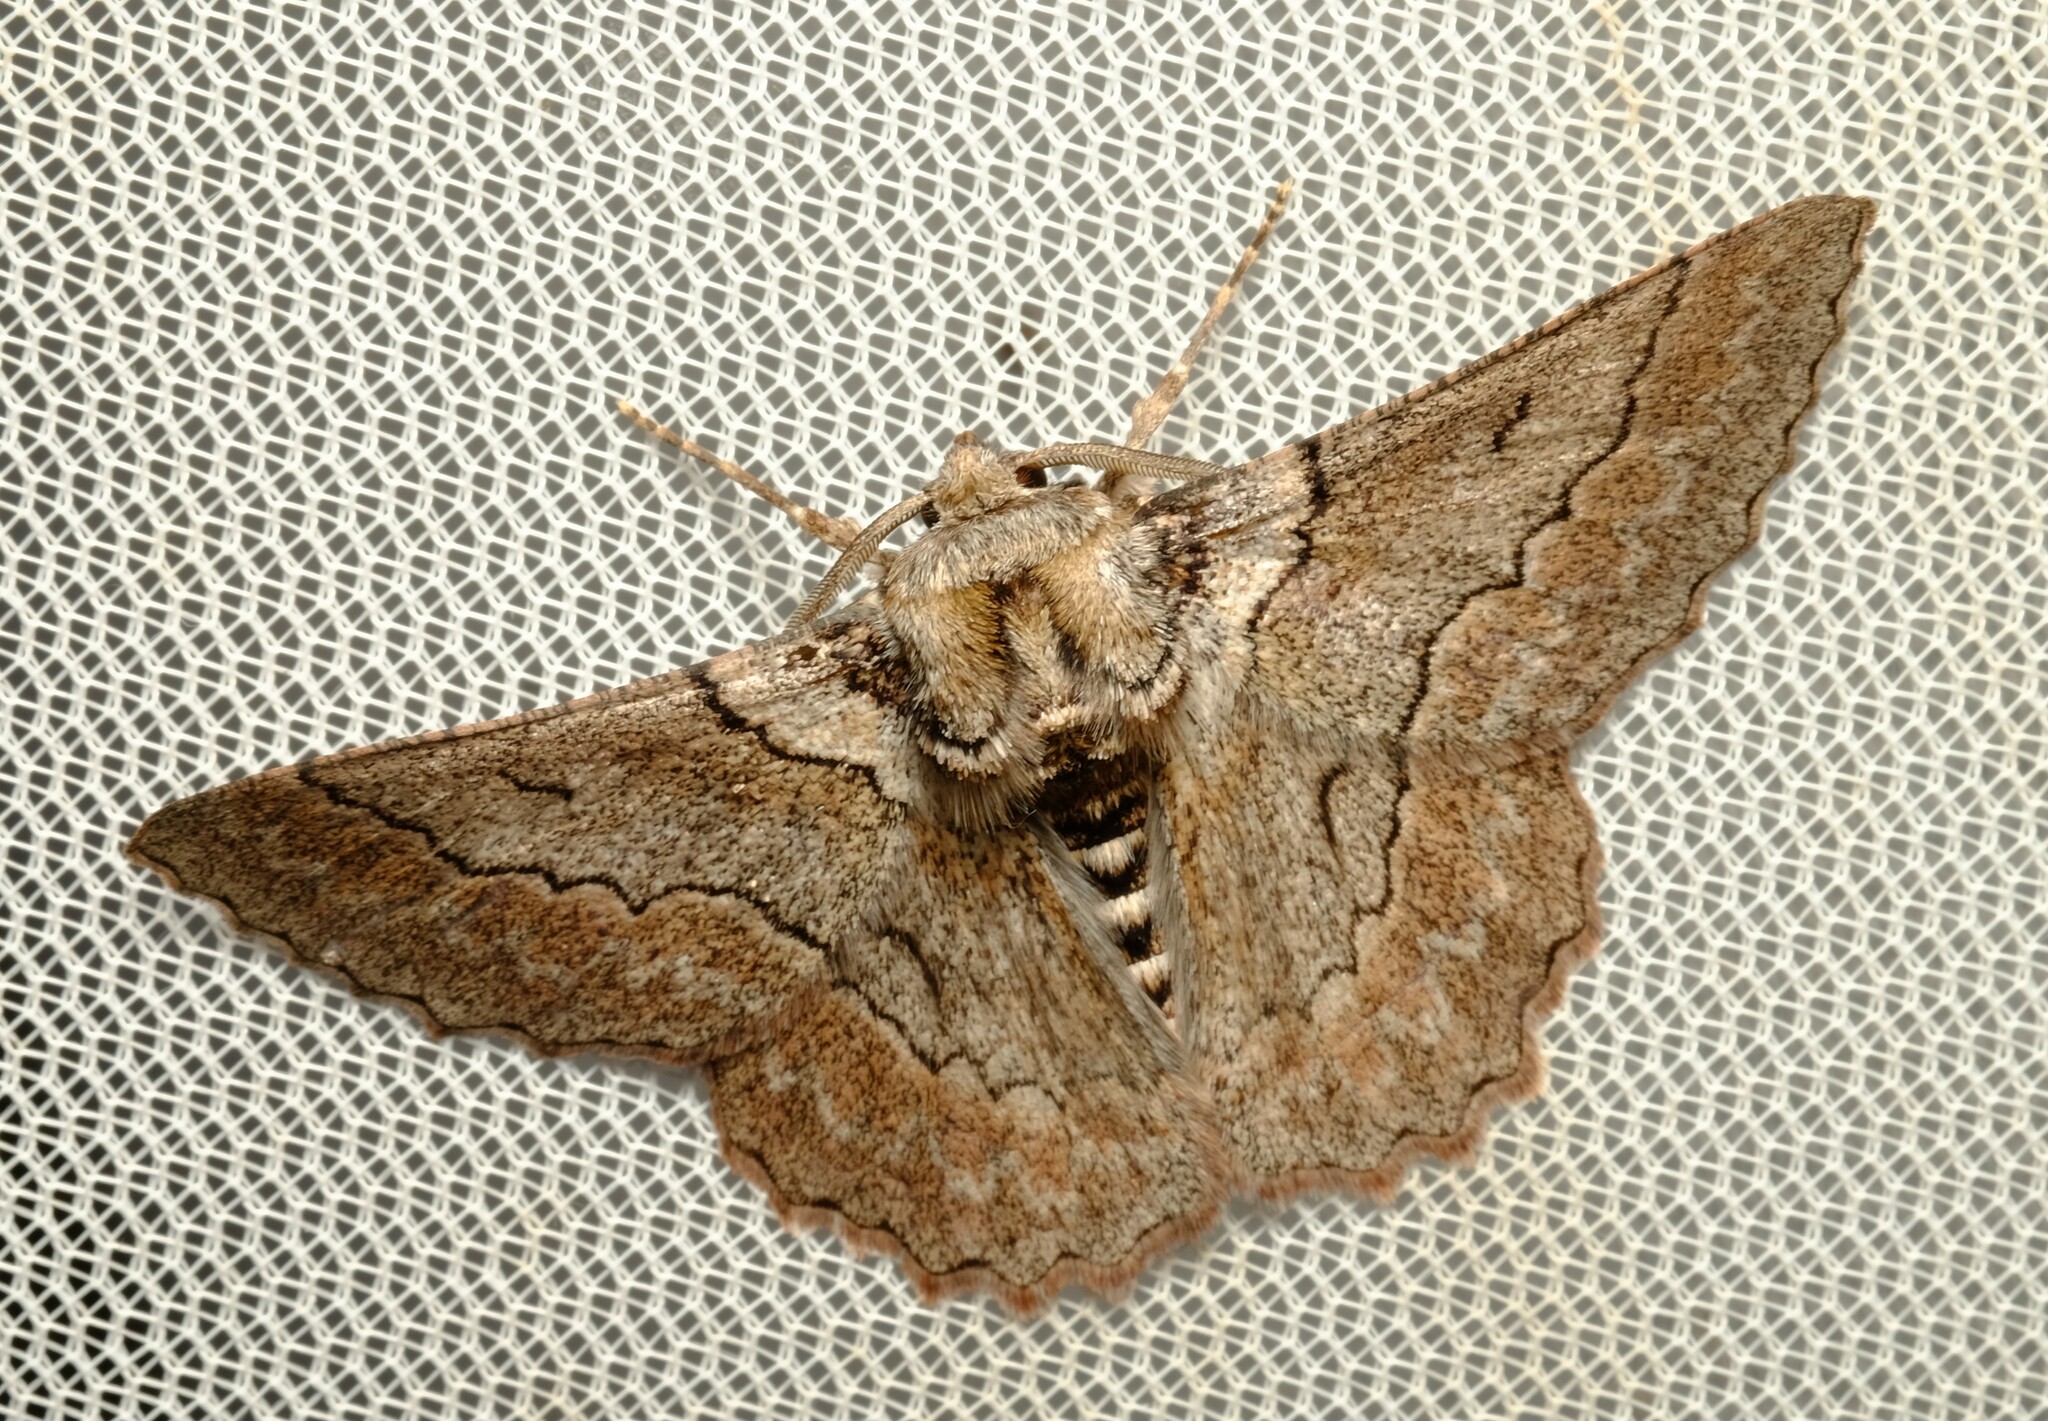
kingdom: Animalia
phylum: Arthropoda
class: Insecta
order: Lepidoptera
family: Geometridae
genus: Hypobapta
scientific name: Hypobapta tachyhalotaria
